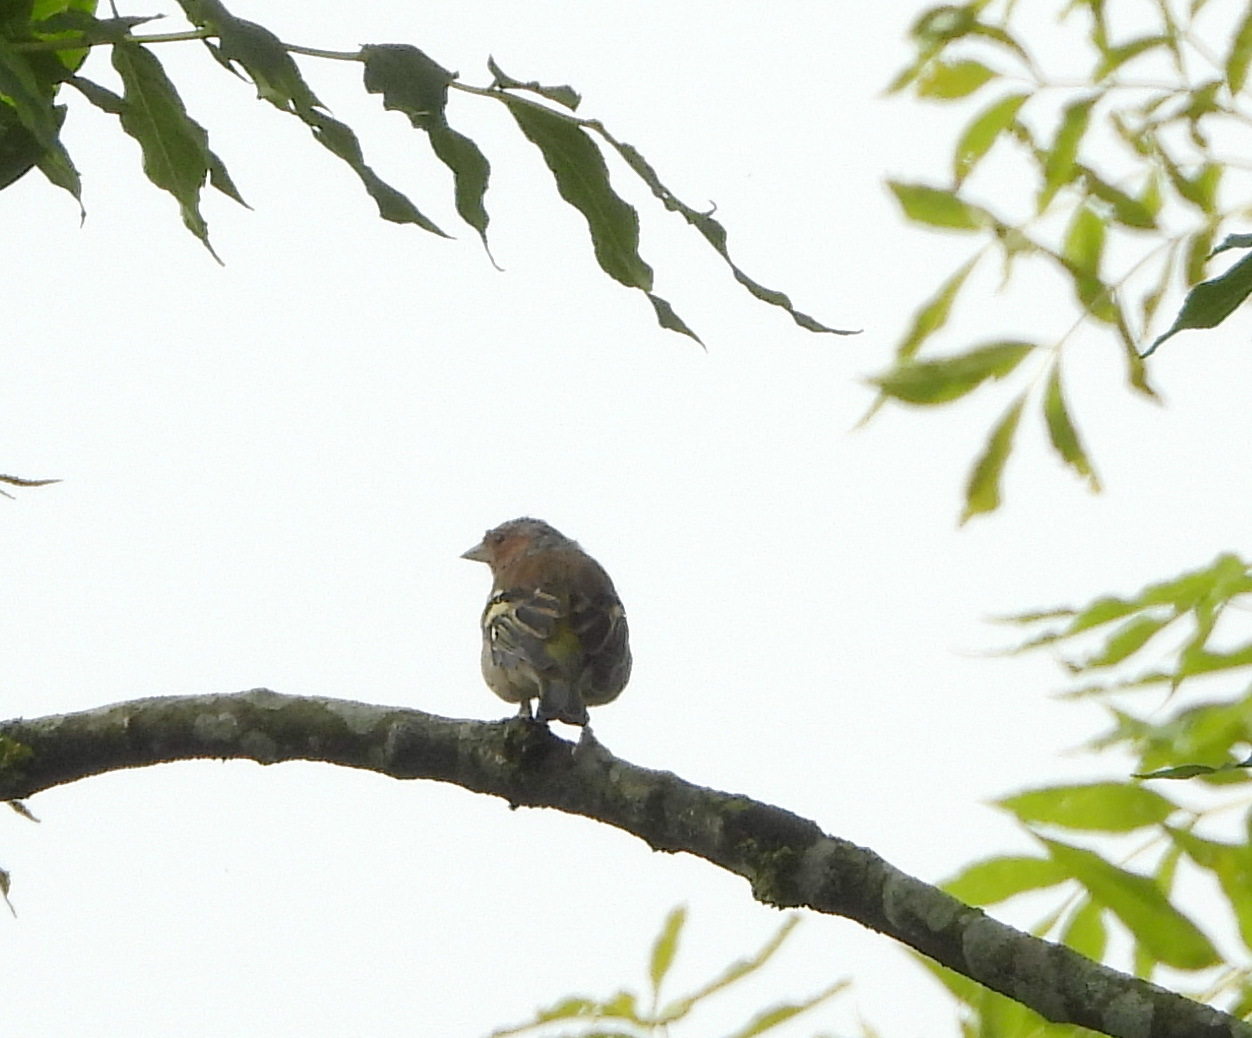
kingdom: Animalia
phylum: Chordata
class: Aves
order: Passeriformes
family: Fringillidae
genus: Fringilla
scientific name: Fringilla coelebs
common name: Common chaffinch
